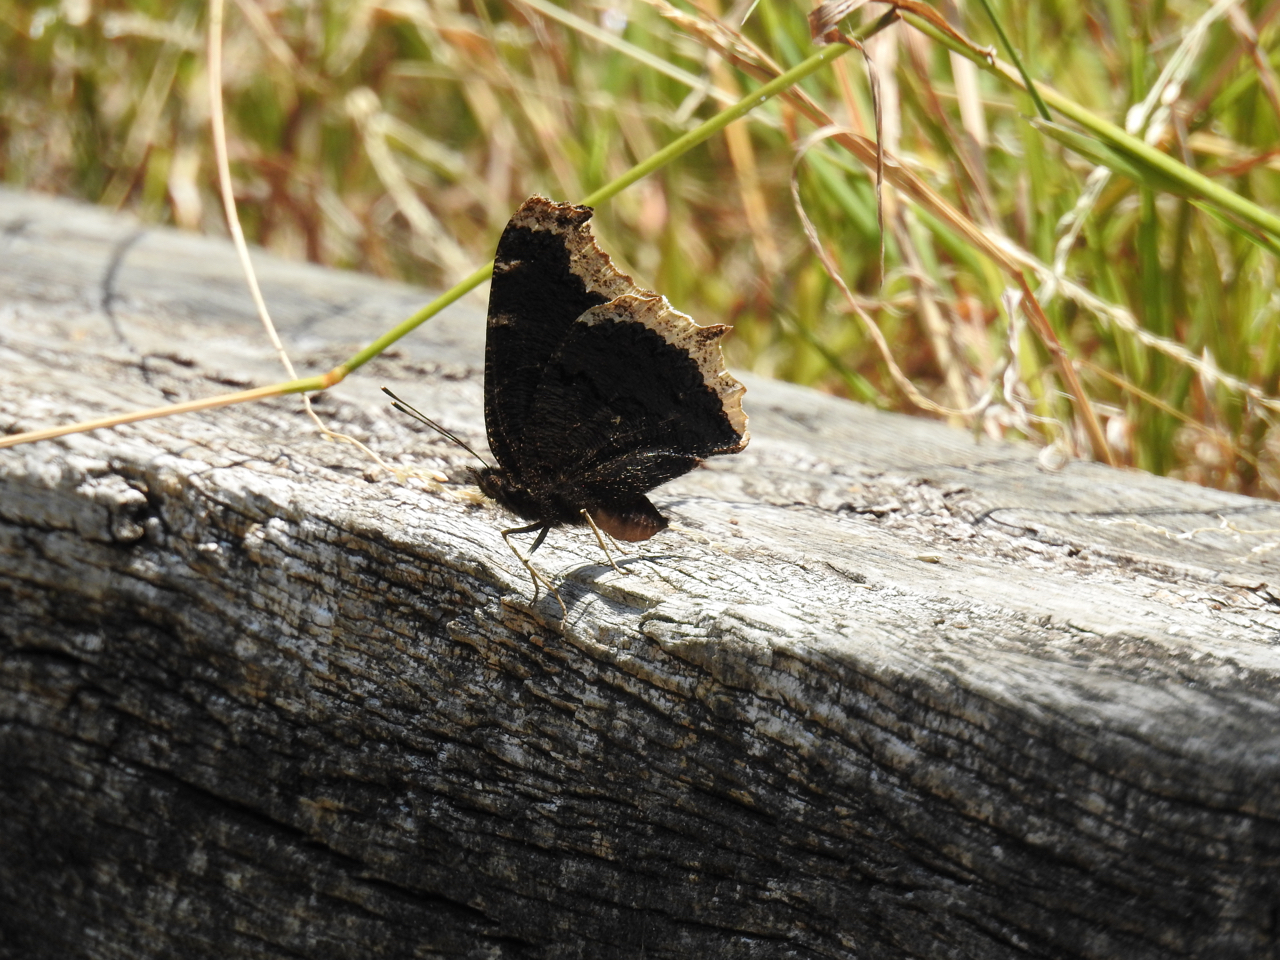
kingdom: Animalia
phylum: Arthropoda
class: Insecta
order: Lepidoptera
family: Nymphalidae
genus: Nymphalis
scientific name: Nymphalis antiopa
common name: Camberwell beauty
